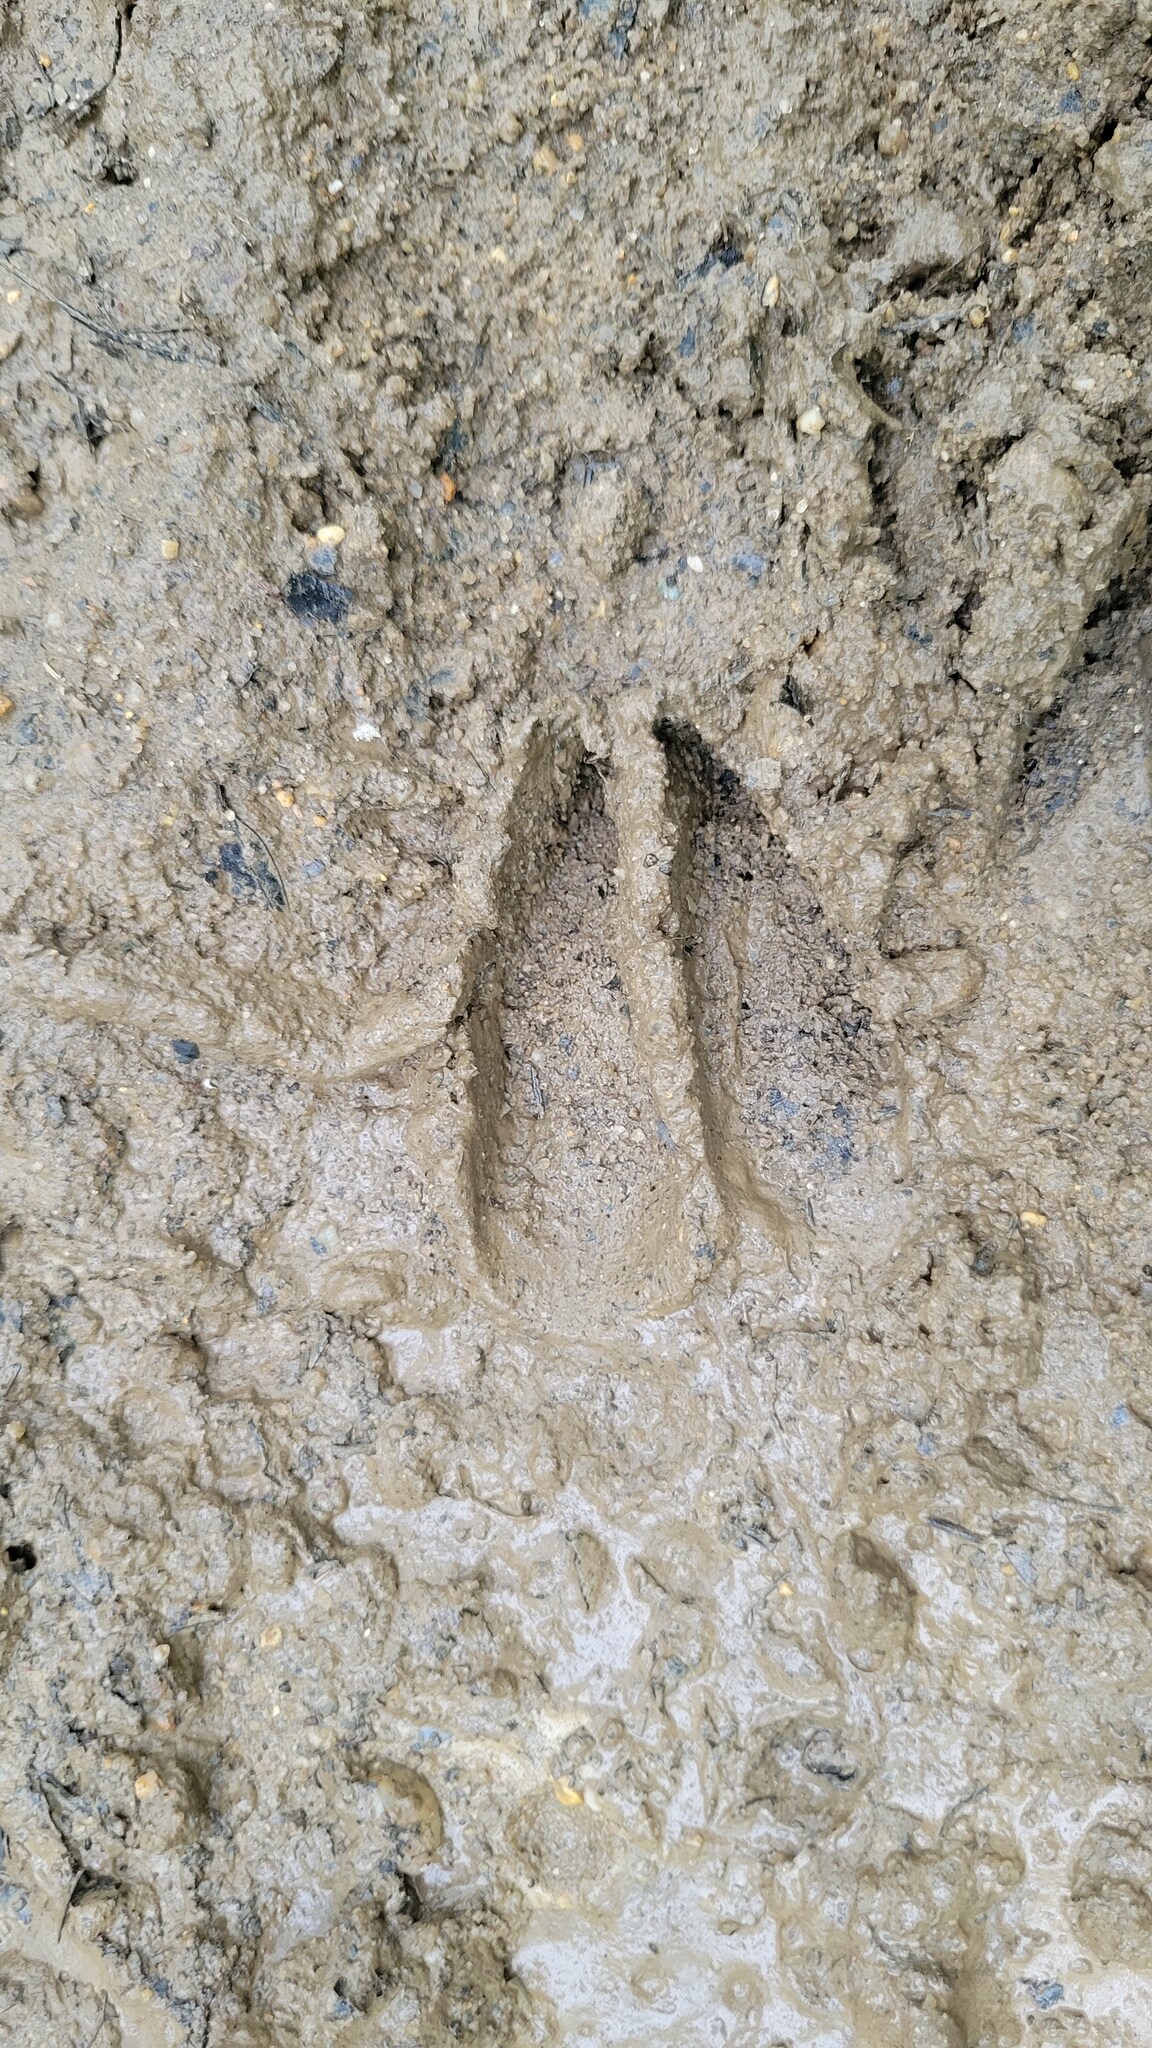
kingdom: Animalia
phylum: Chordata
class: Mammalia
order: Artiodactyla
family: Cervidae
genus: Odocoileus
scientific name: Odocoileus virginianus
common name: White-tailed deer
